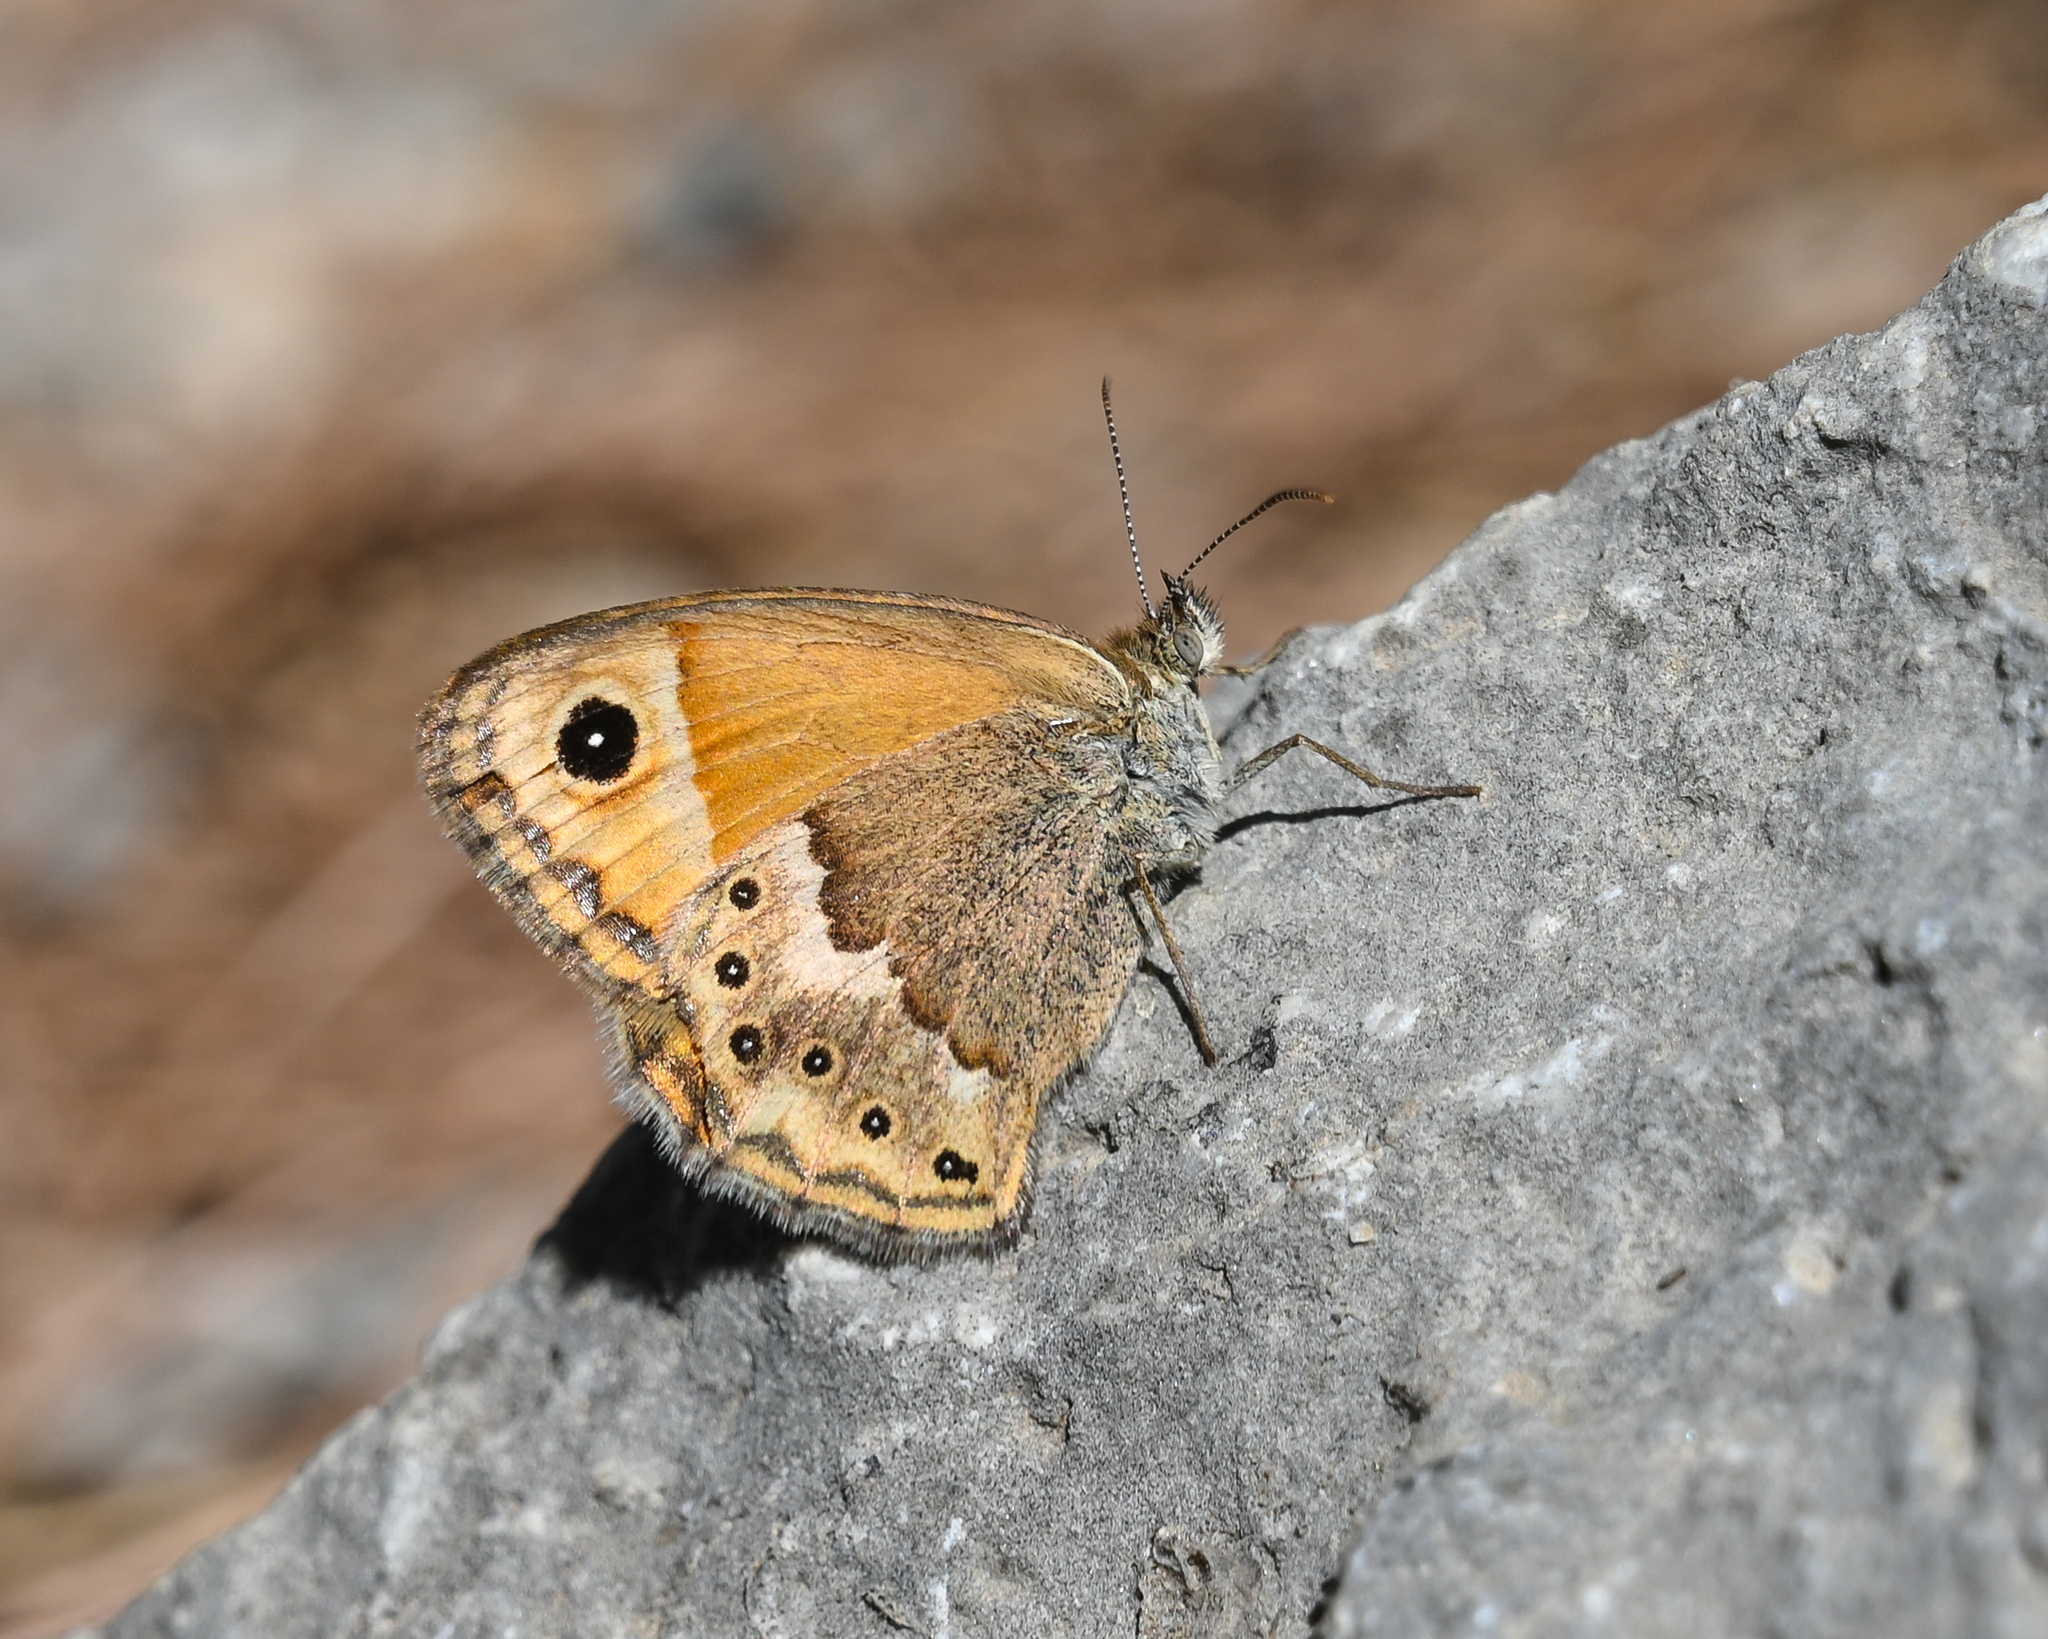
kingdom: Animalia
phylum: Arthropoda
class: Insecta
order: Lepidoptera
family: Nymphalidae
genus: Coenonympha
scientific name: Coenonympha thyrsis
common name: Cretan small heath
